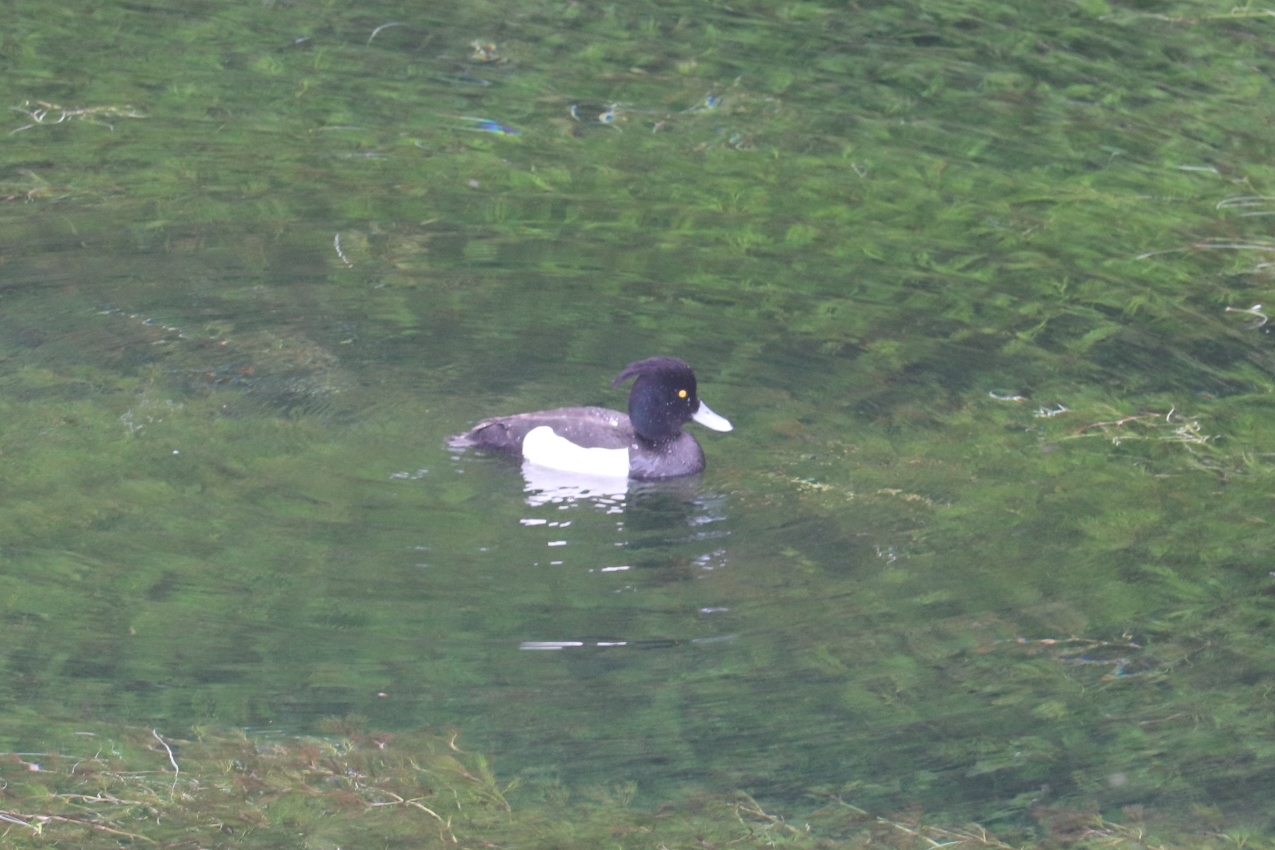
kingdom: Animalia
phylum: Chordata
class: Aves
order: Anseriformes
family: Anatidae
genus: Aythya
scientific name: Aythya fuligula
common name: Tufted duck
